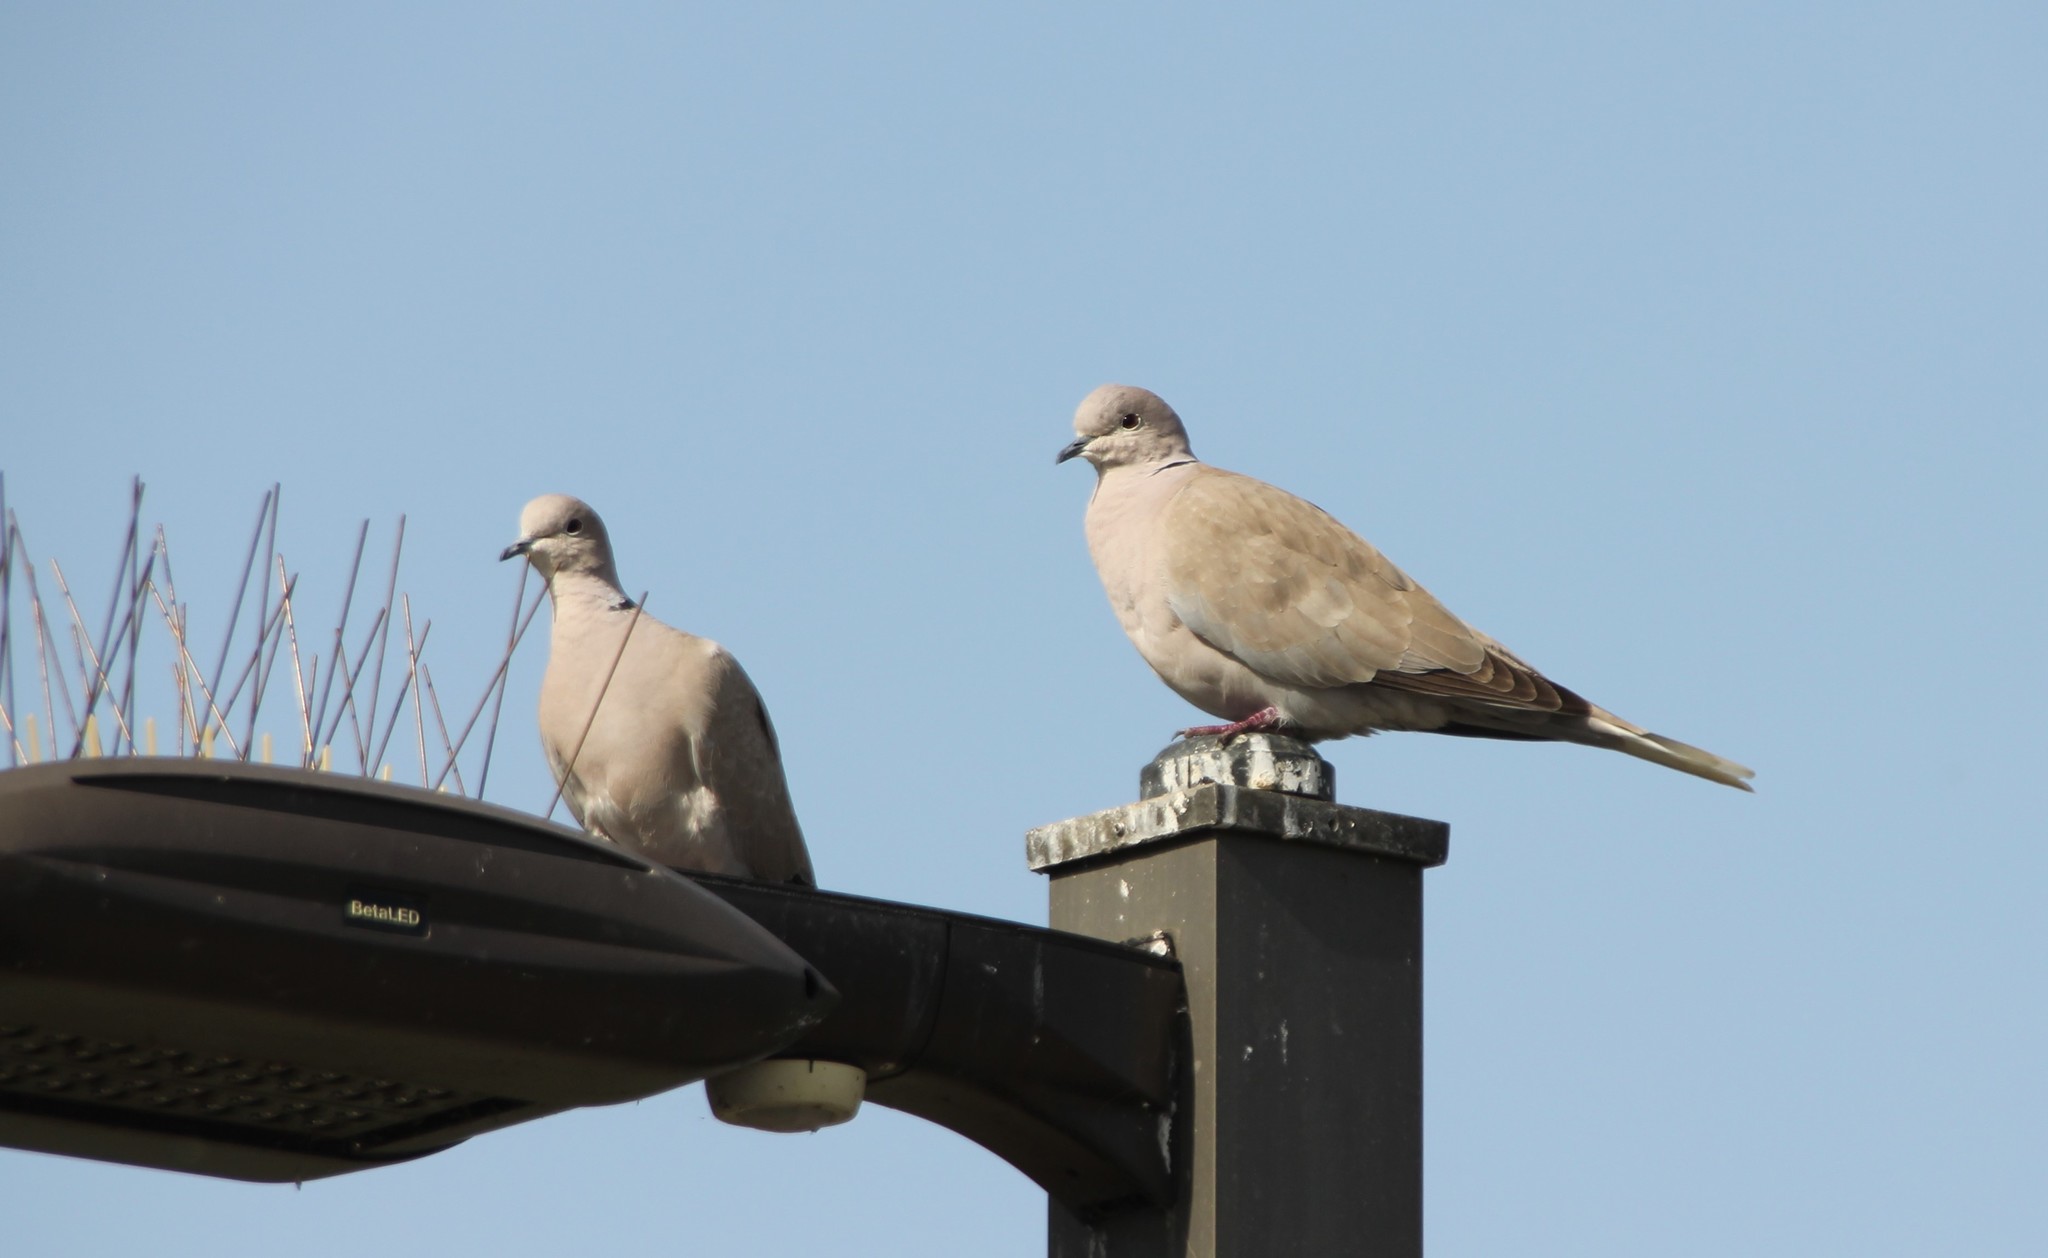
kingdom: Animalia
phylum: Chordata
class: Aves
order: Columbiformes
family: Columbidae
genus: Streptopelia
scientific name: Streptopelia decaocto
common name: Eurasian collared dove
